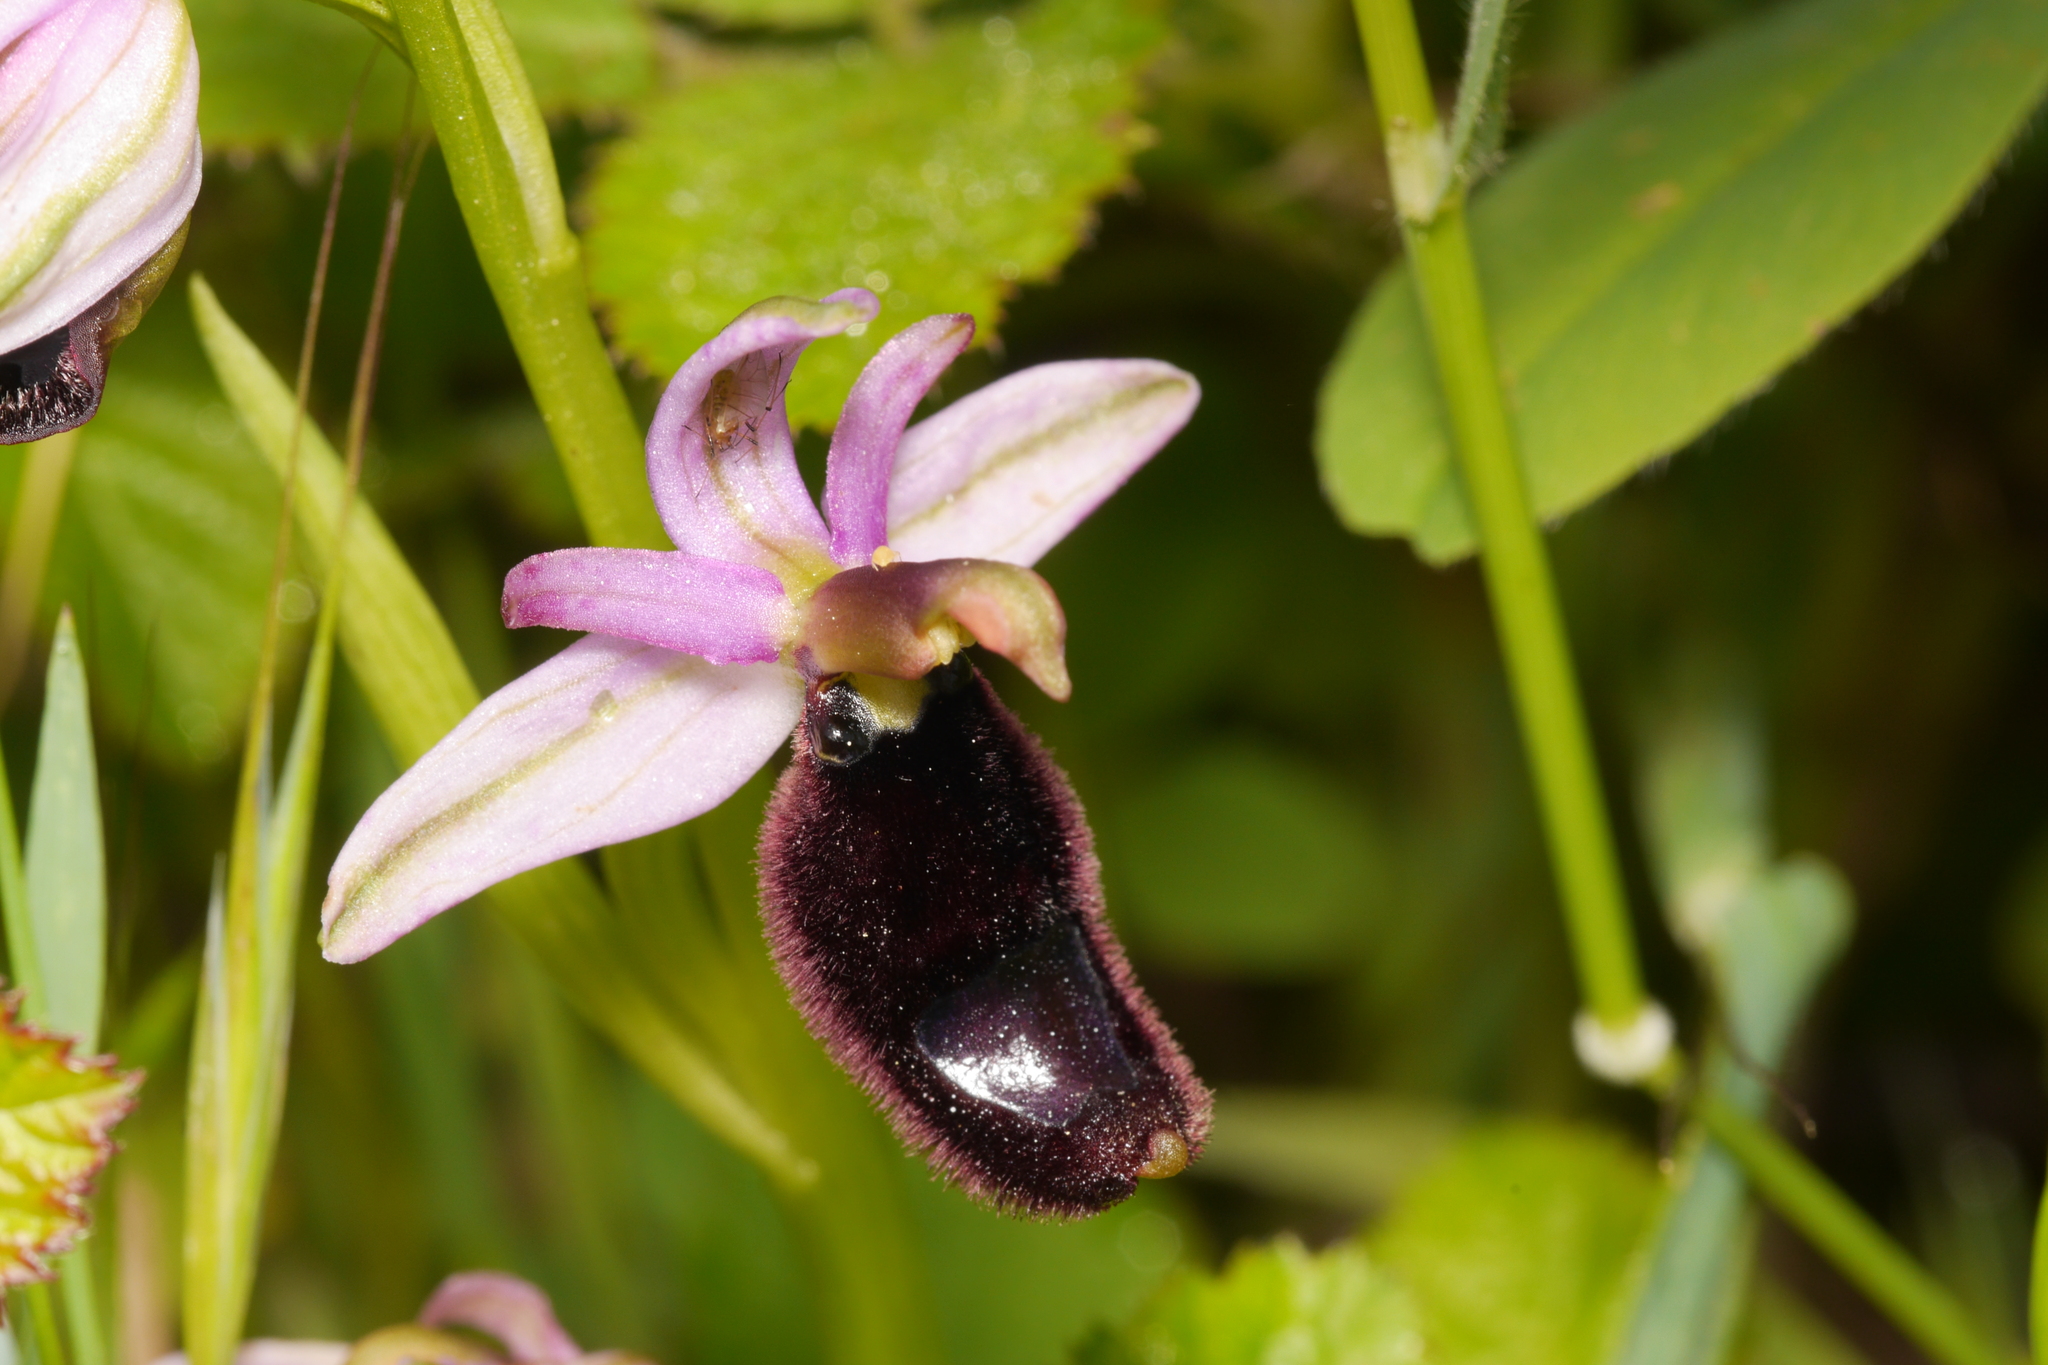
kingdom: Plantae
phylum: Tracheophyta
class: Liliopsida
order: Asparagales
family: Orchidaceae
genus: Ophrys
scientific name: Ophrys bertolonii
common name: Bertoloni's bee orchid
